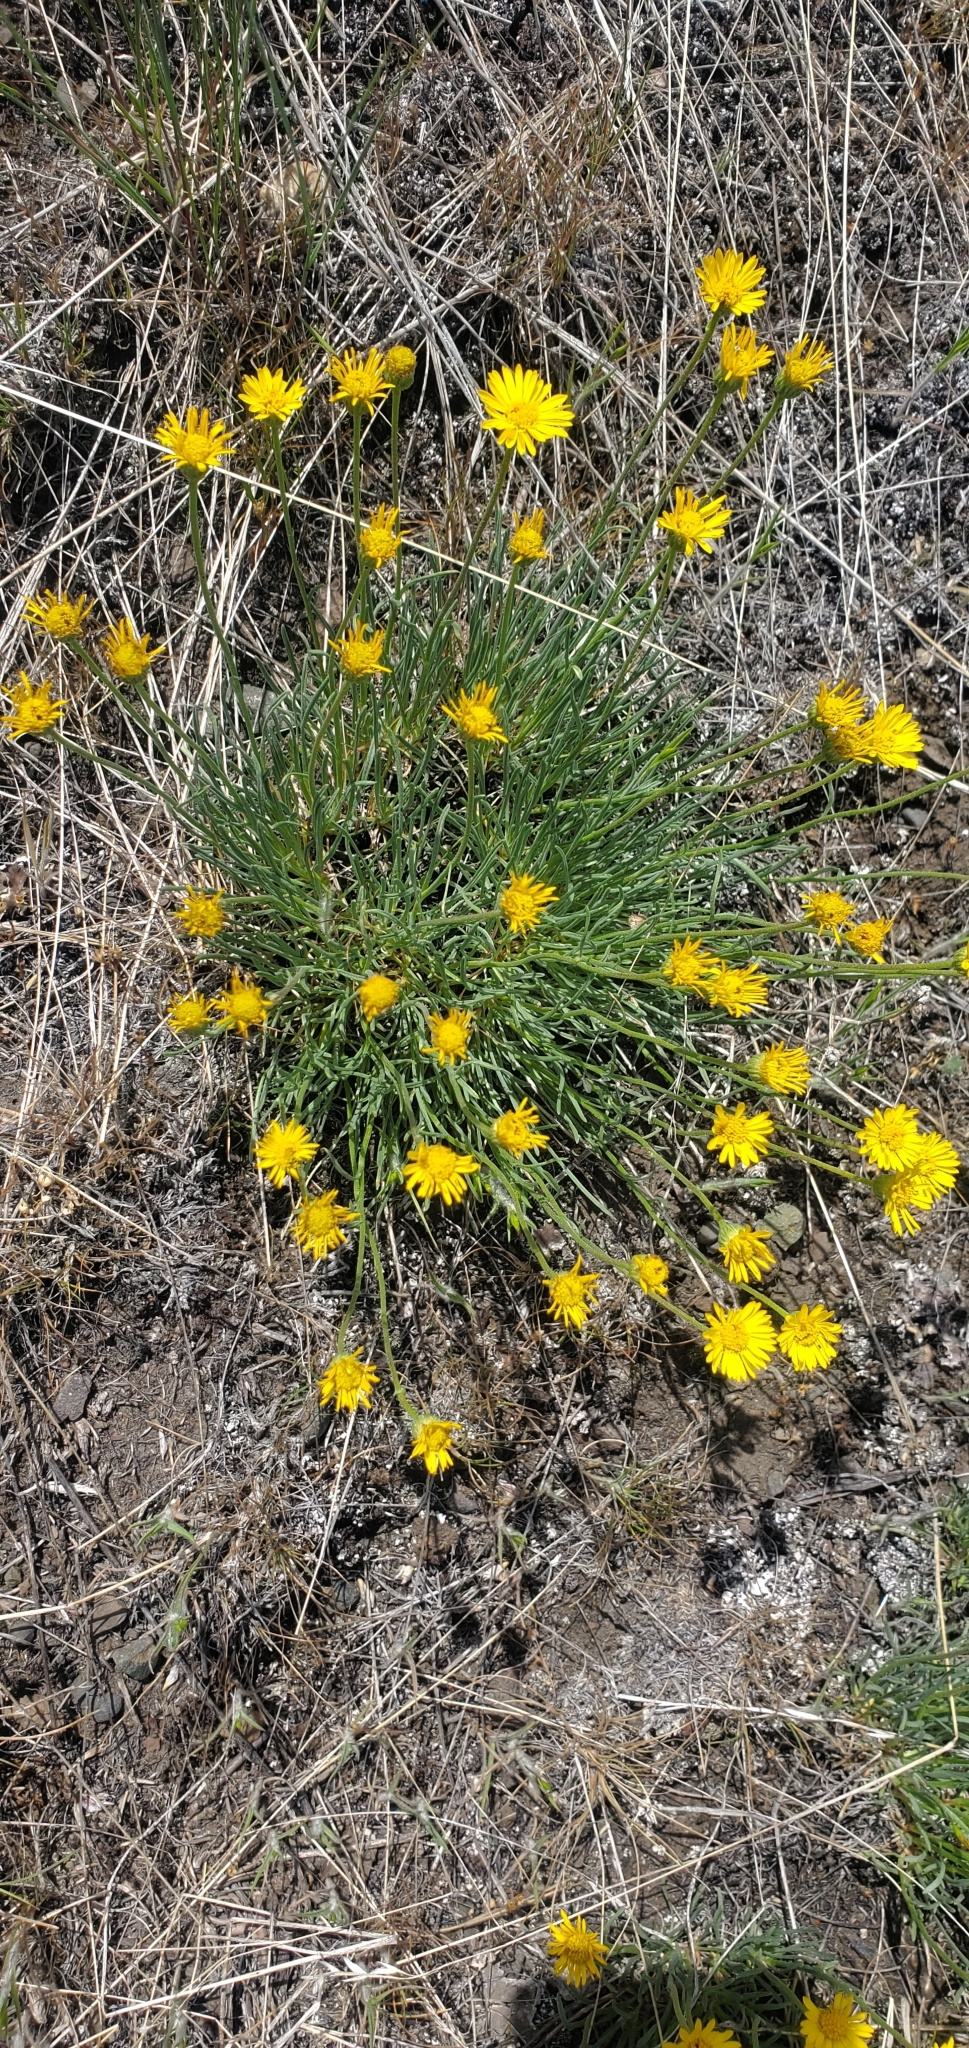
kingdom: Plantae
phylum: Tracheophyta
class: Magnoliopsida
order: Asterales
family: Asteraceae
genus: Erigeron
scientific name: Erigeron linearis
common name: Desert yellow fleabane
